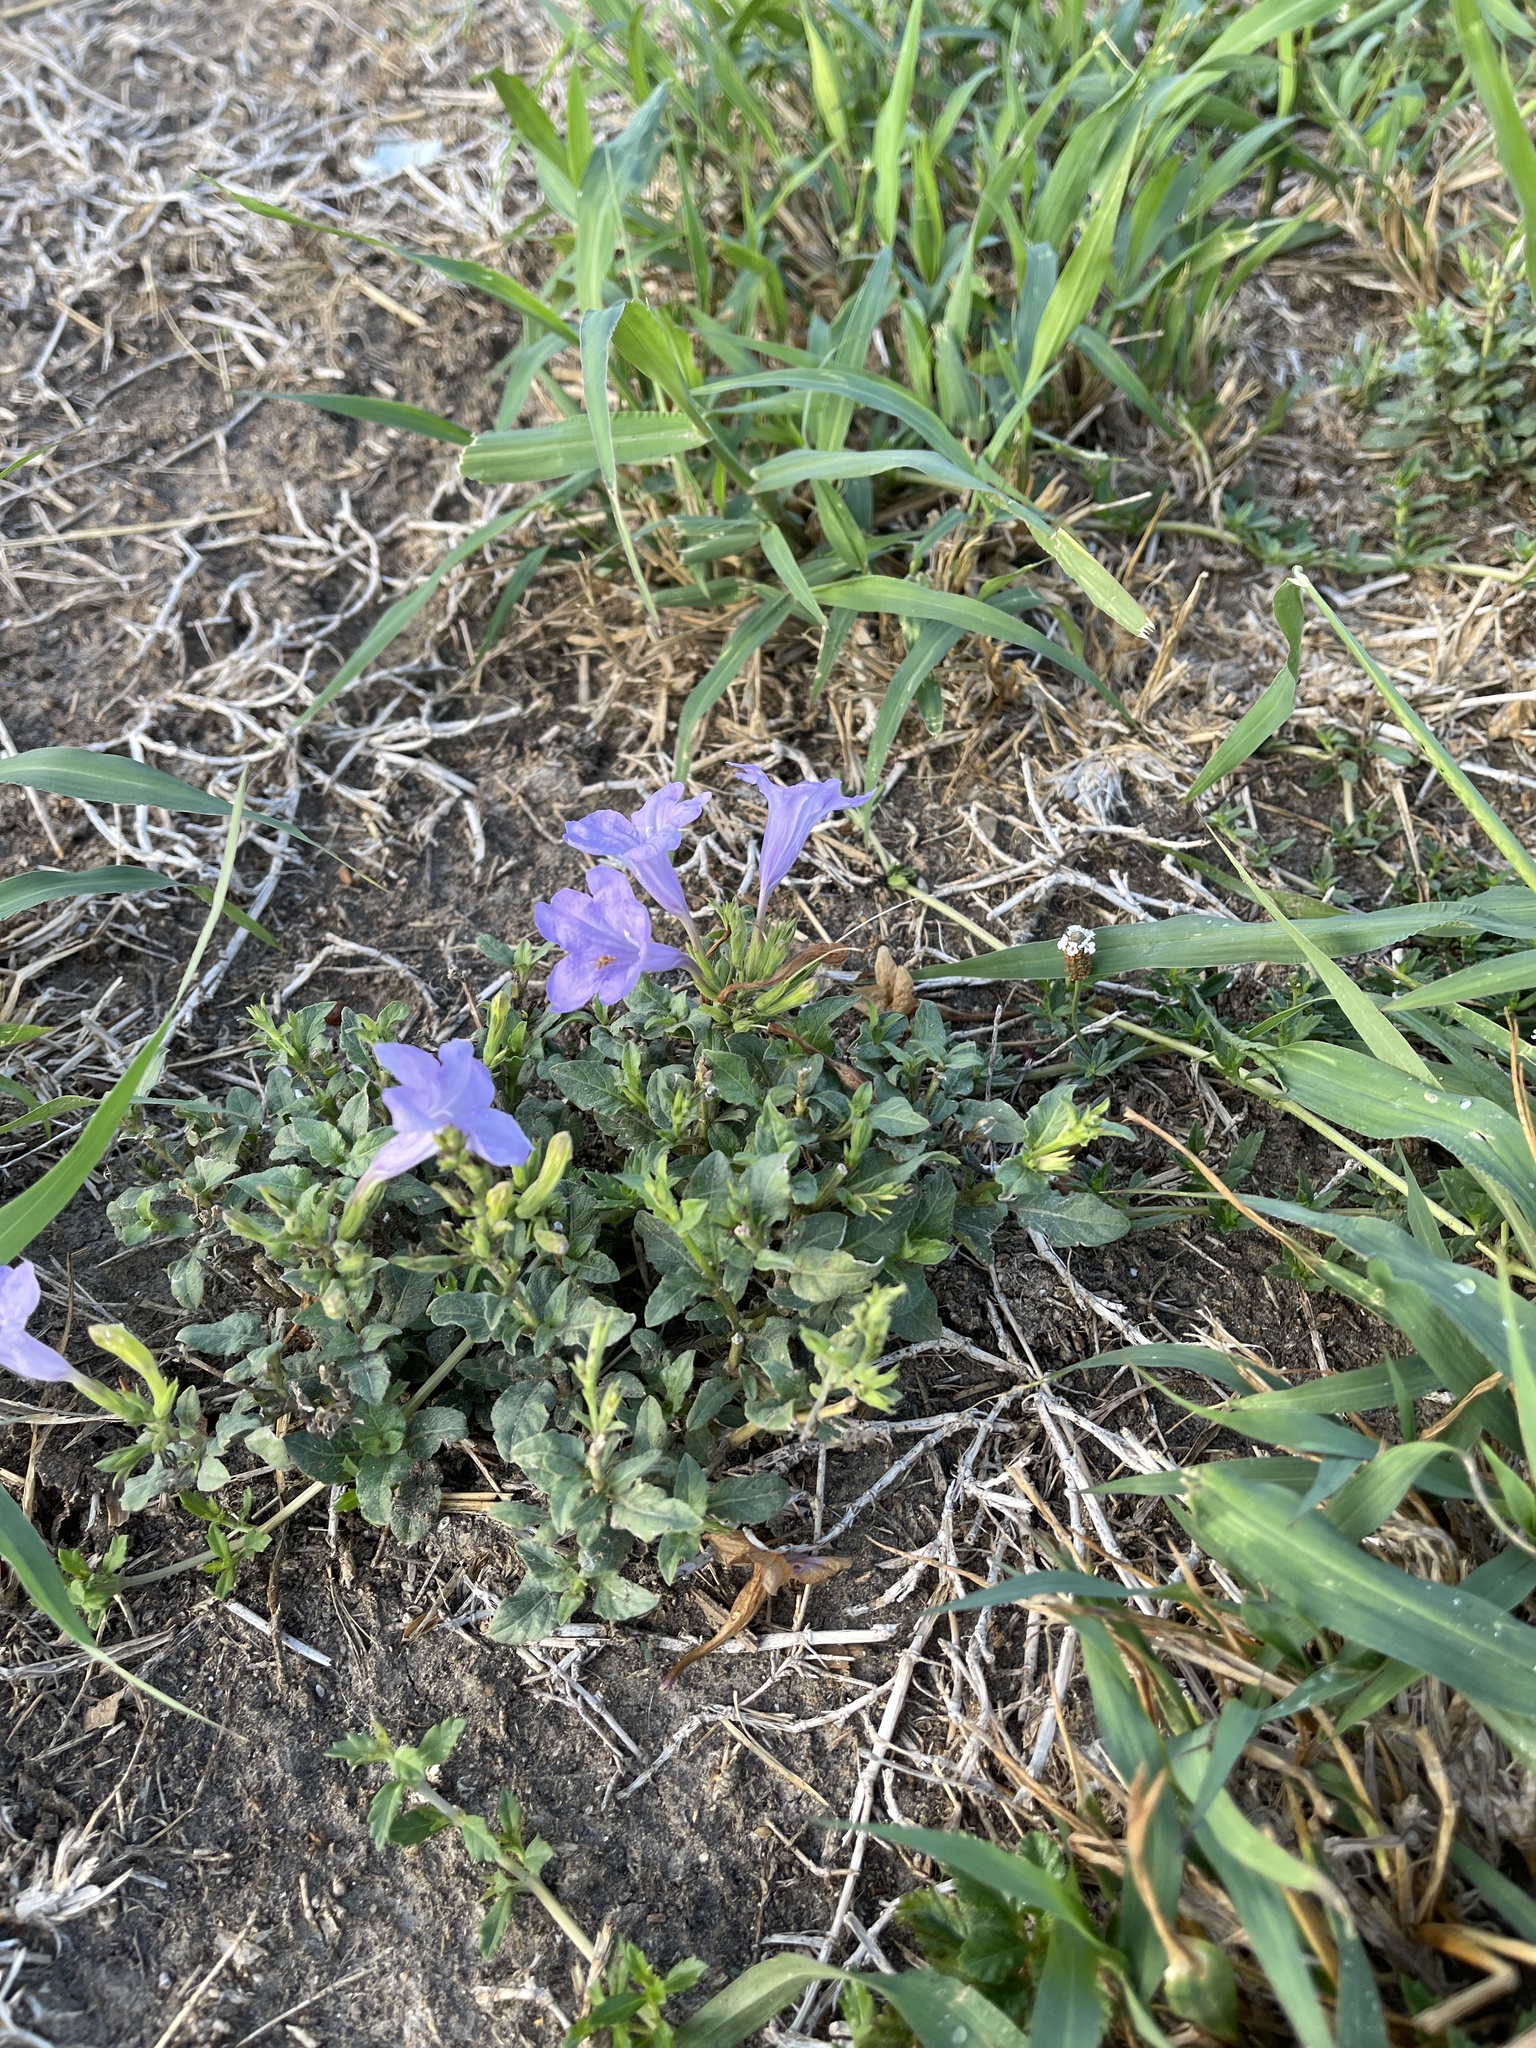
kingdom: Plantae
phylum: Tracheophyta
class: Magnoliopsida
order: Lamiales
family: Acanthaceae
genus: Ruellia
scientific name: Ruellia ciliatiflora
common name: Hairyflower wild petunia
